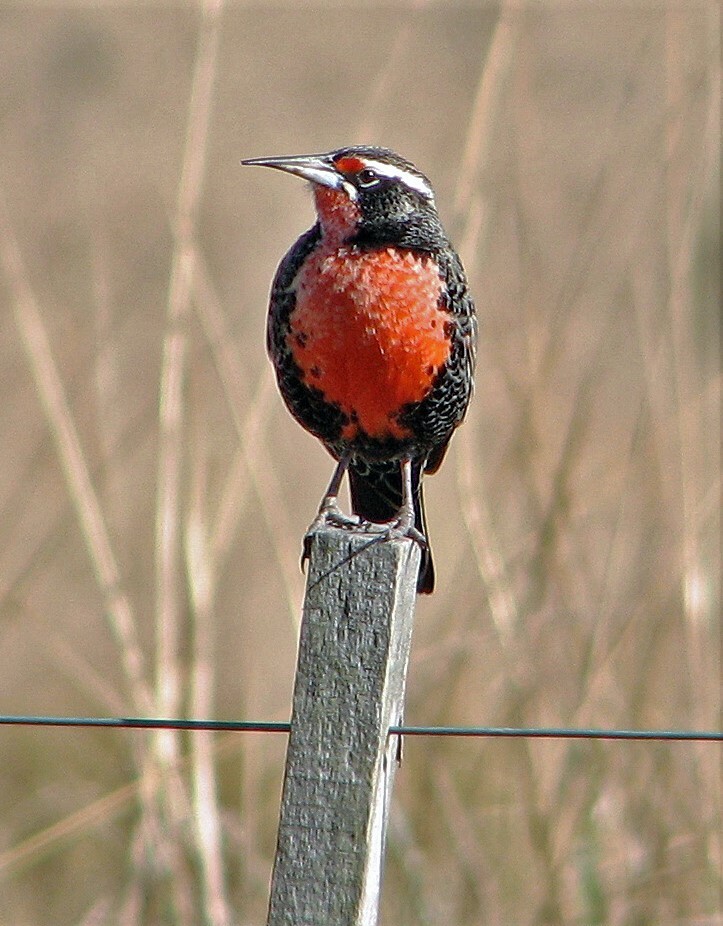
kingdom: Animalia
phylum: Chordata
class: Aves
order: Passeriformes
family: Icteridae
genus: Sturnella
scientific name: Sturnella loyca
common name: Long-tailed meadowlark
